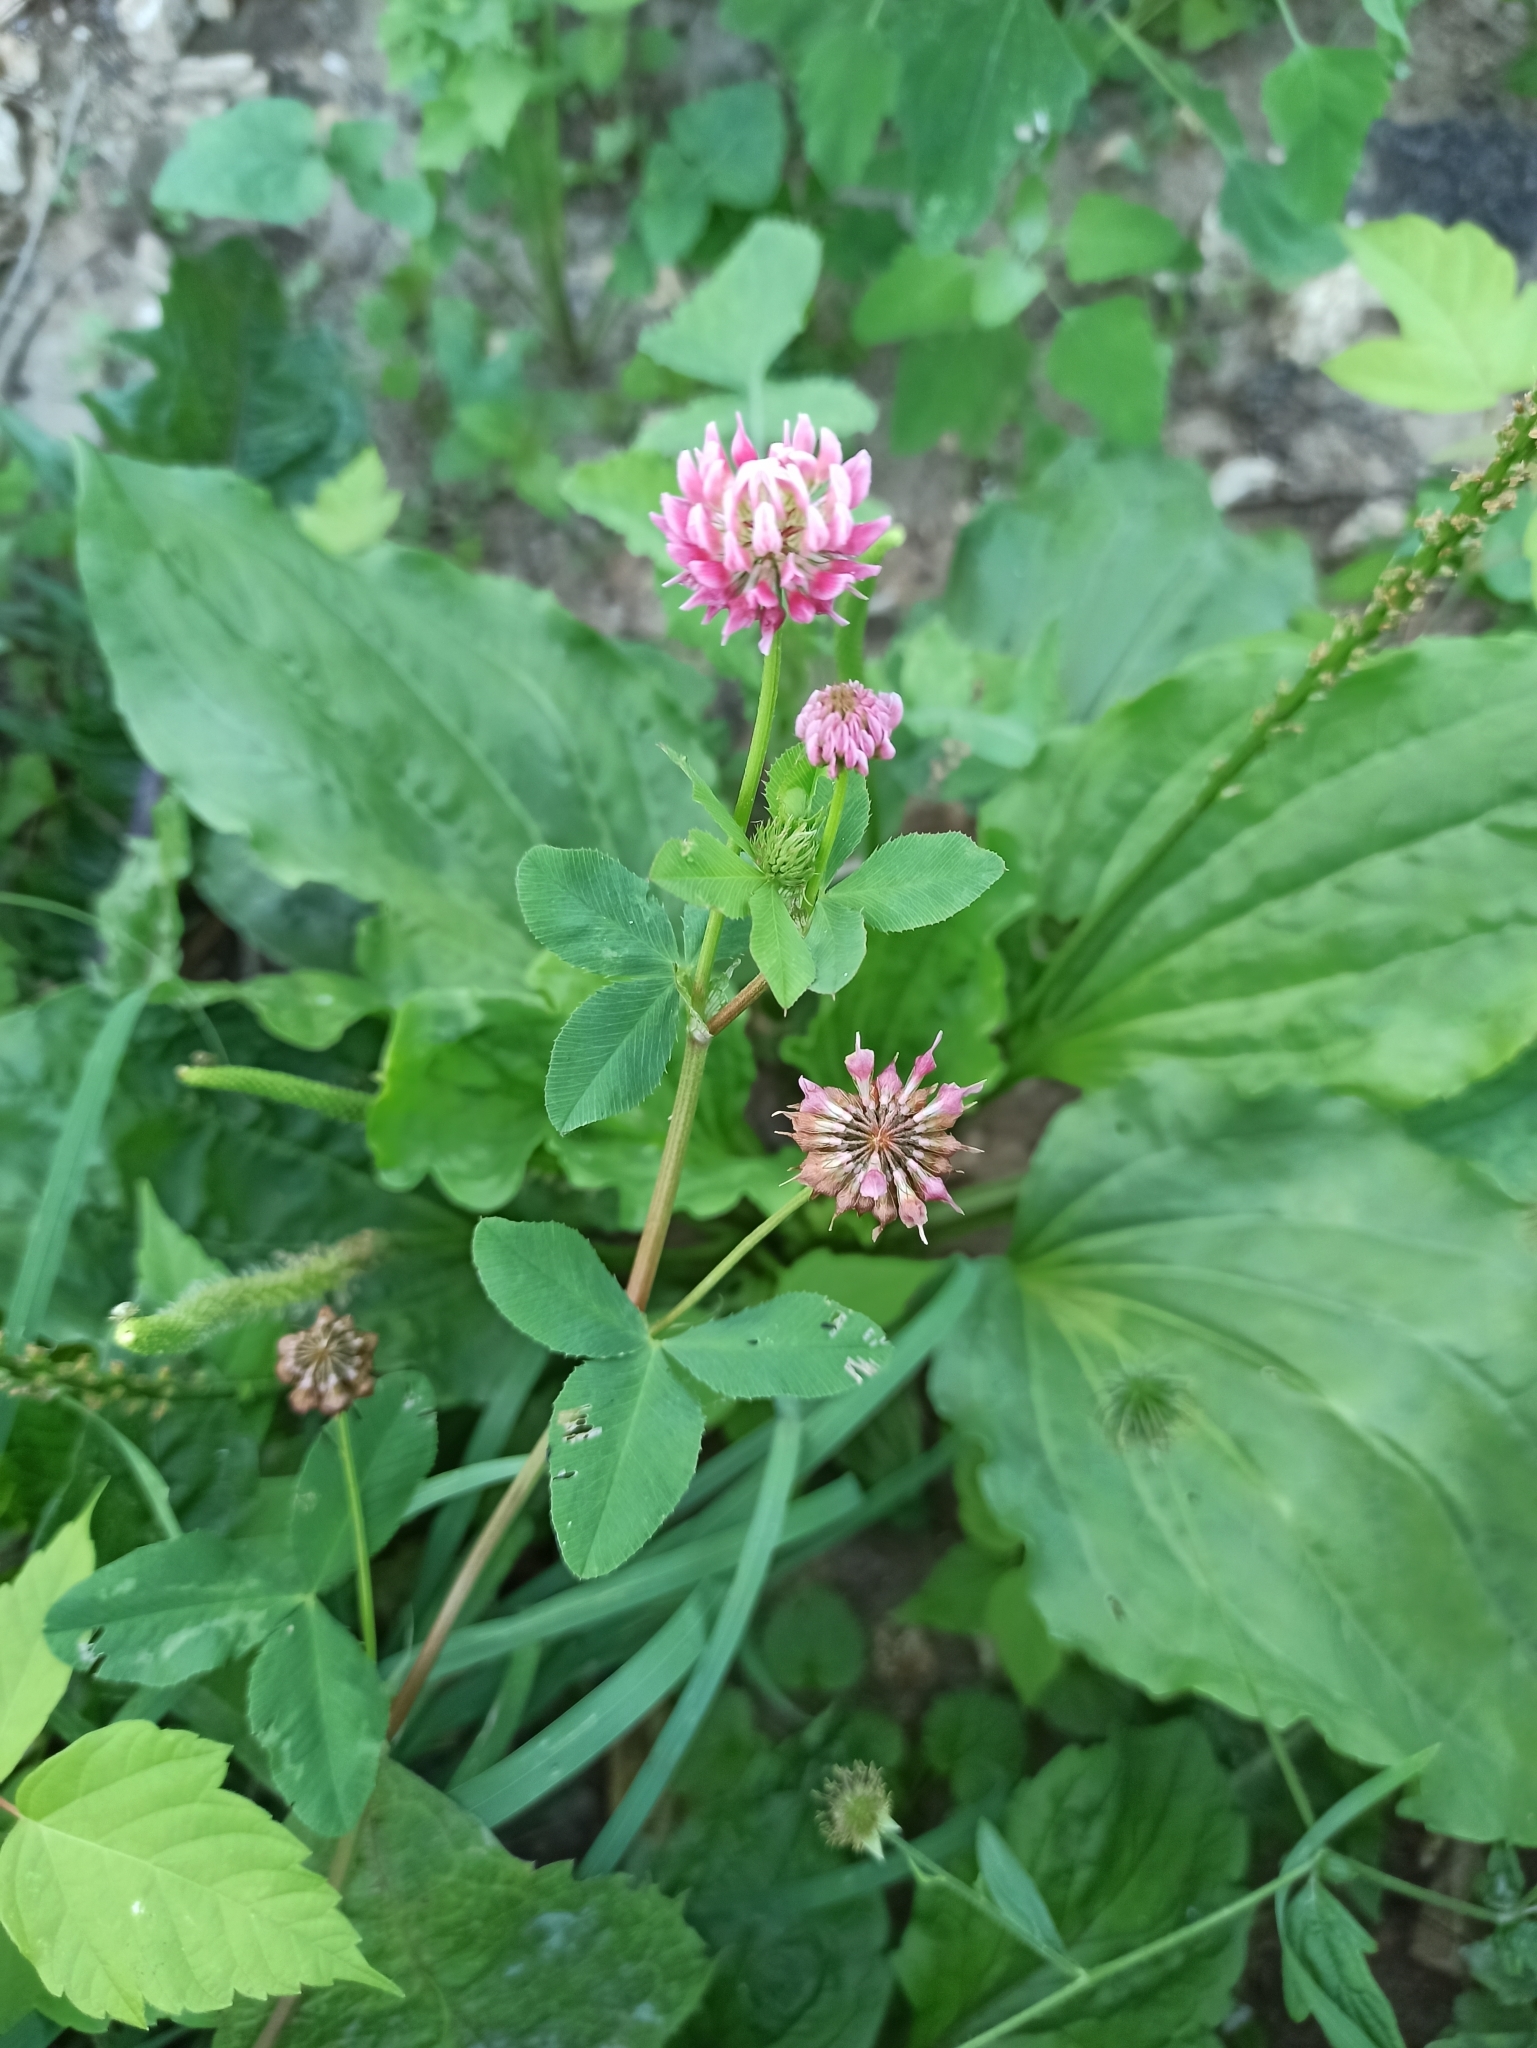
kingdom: Plantae
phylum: Tracheophyta
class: Magnoliopsida
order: Fabales
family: Fabaceae
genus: Trifolium
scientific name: Trifolium hybridum
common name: Alsike clover
